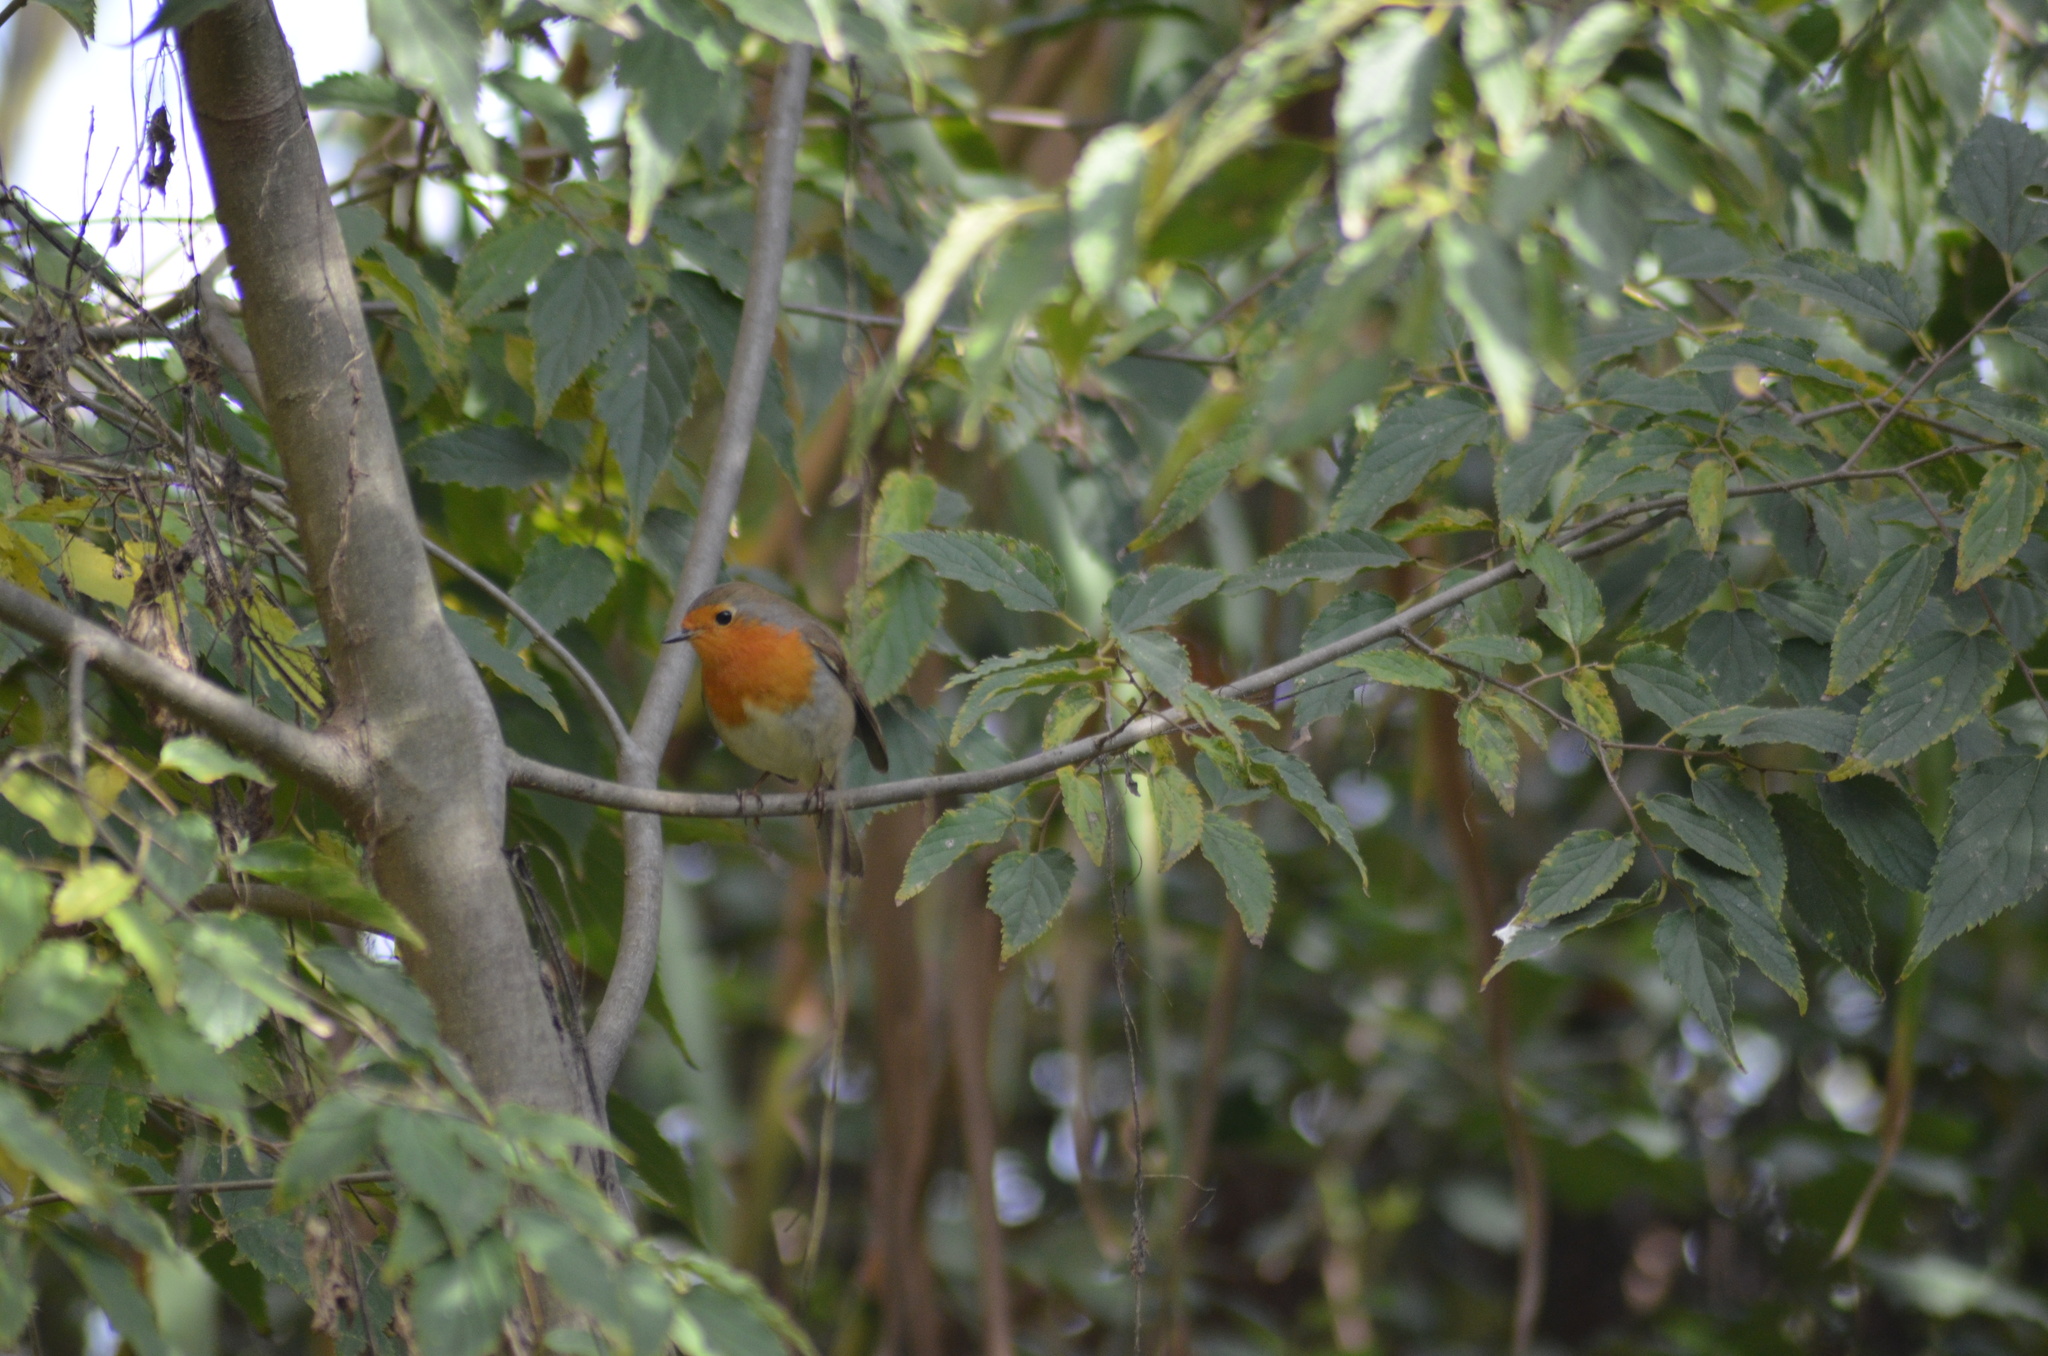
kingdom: Animalia
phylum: Chordata
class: Aves
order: Passeriformes
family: Muscicapidae
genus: Erithacus
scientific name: Erithacus rubecula
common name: European robin
